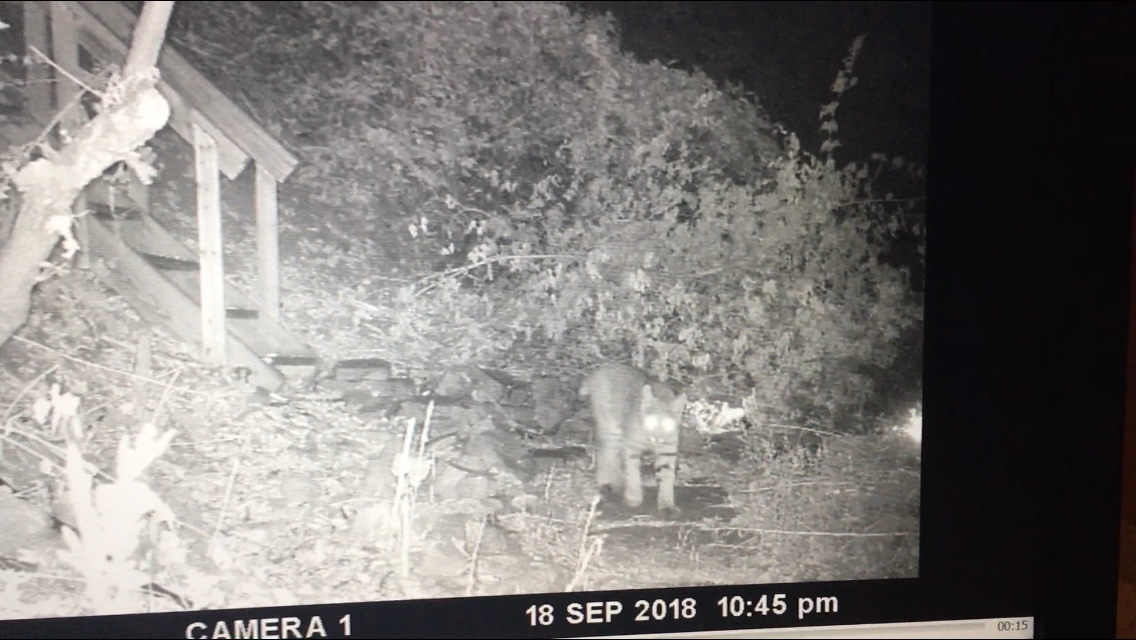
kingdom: Animalia
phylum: Chordata
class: Mammalia
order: Carnivora
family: Felidae
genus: Lynx
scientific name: Lynx rufus
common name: Bobcat
